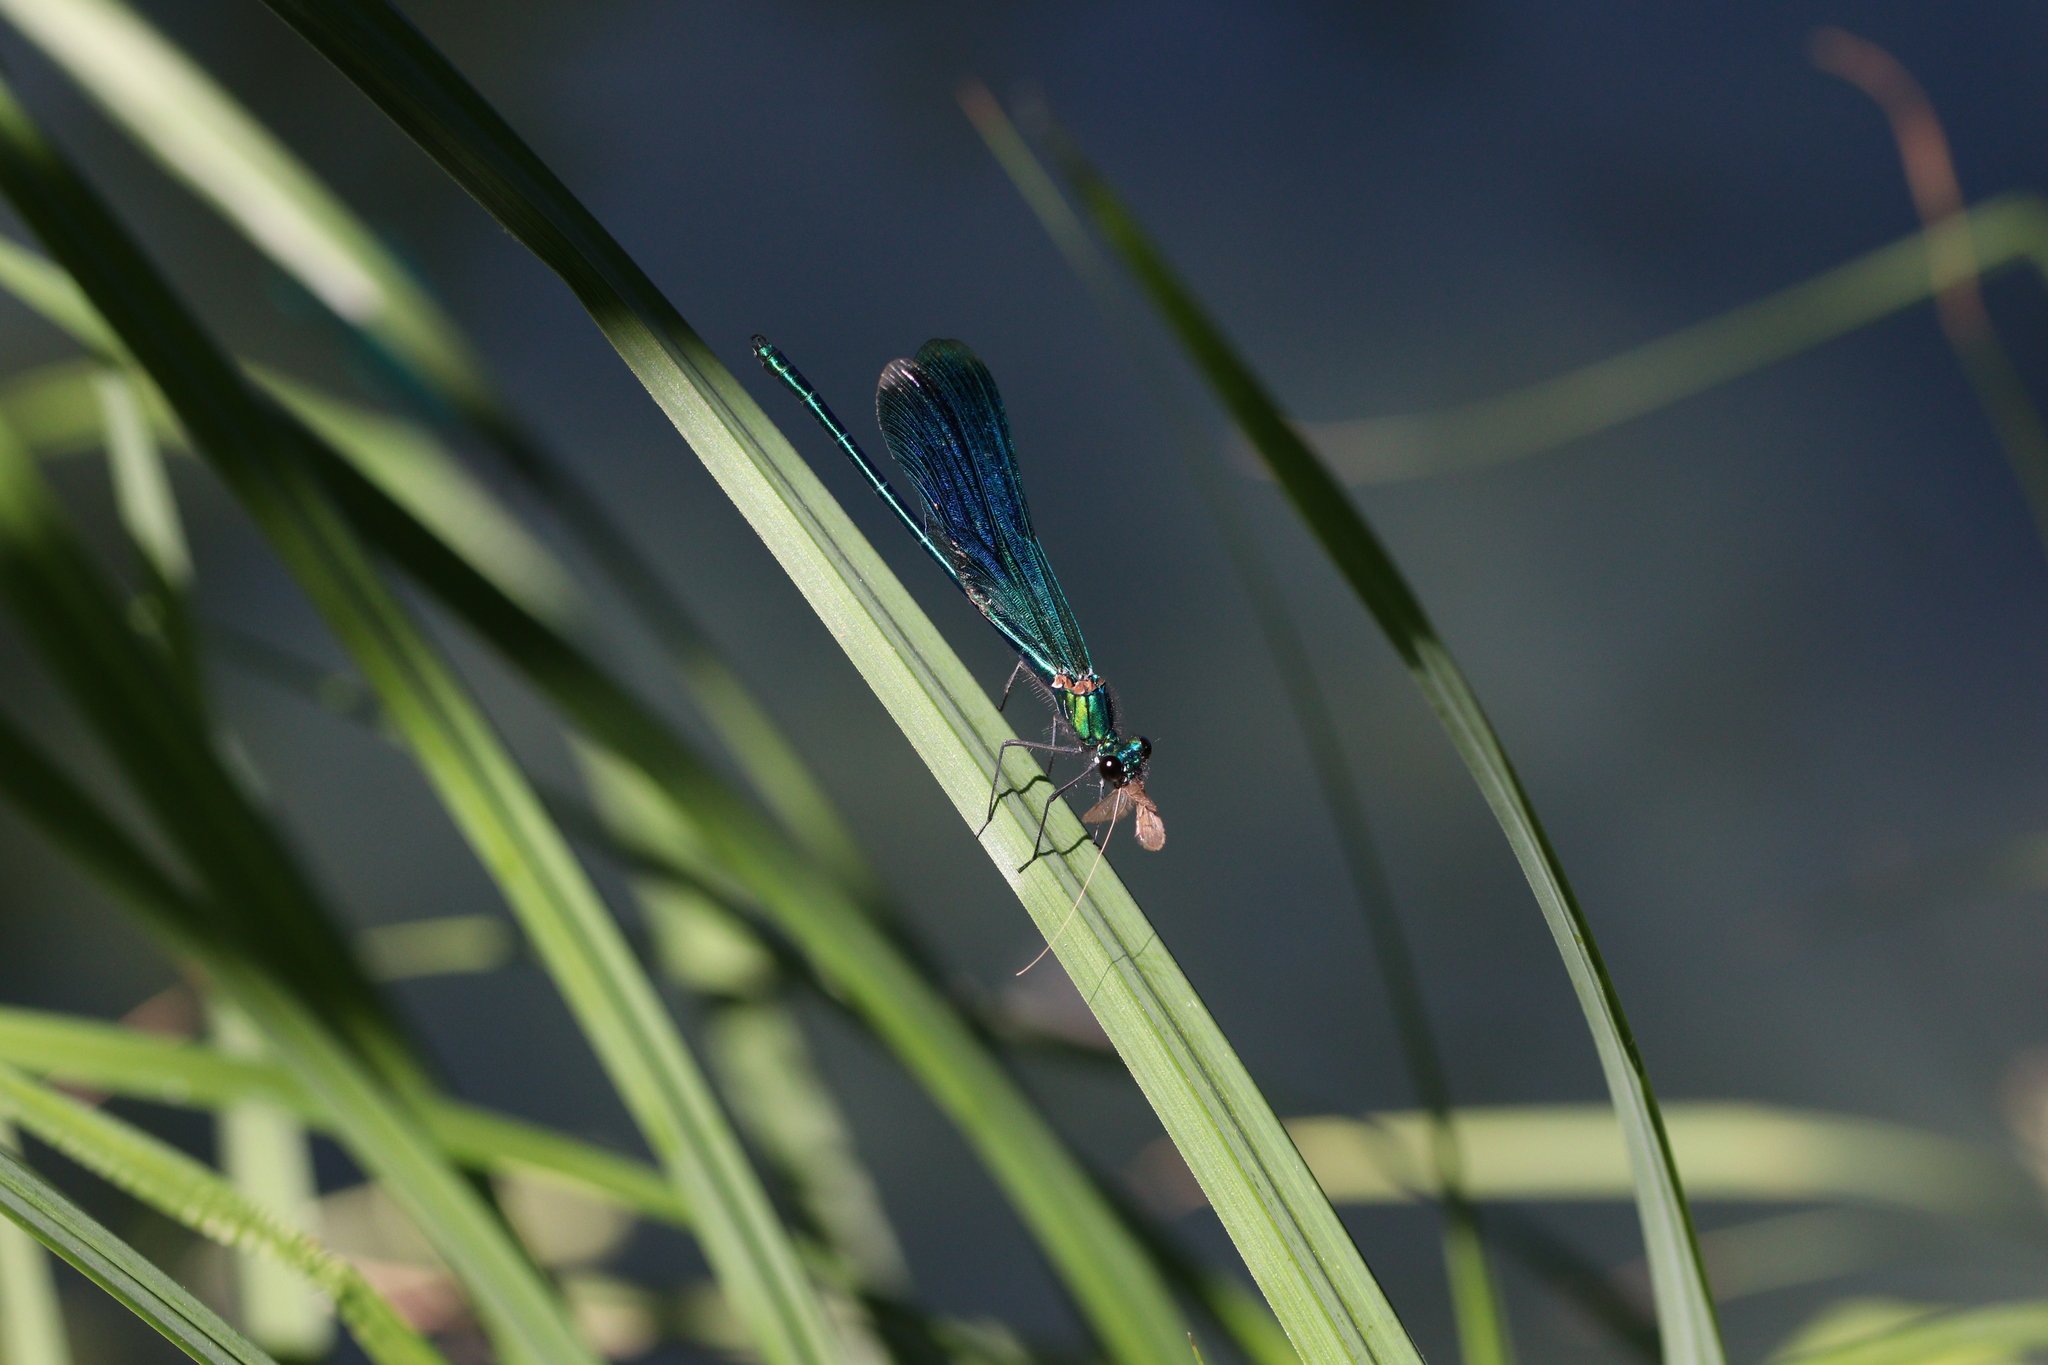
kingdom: Animalia
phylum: Arthropoda
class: Insecta
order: Odonata
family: Calopterygidae
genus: Calopteryx
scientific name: Calopteryx splendens
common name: Banded demoiselle
